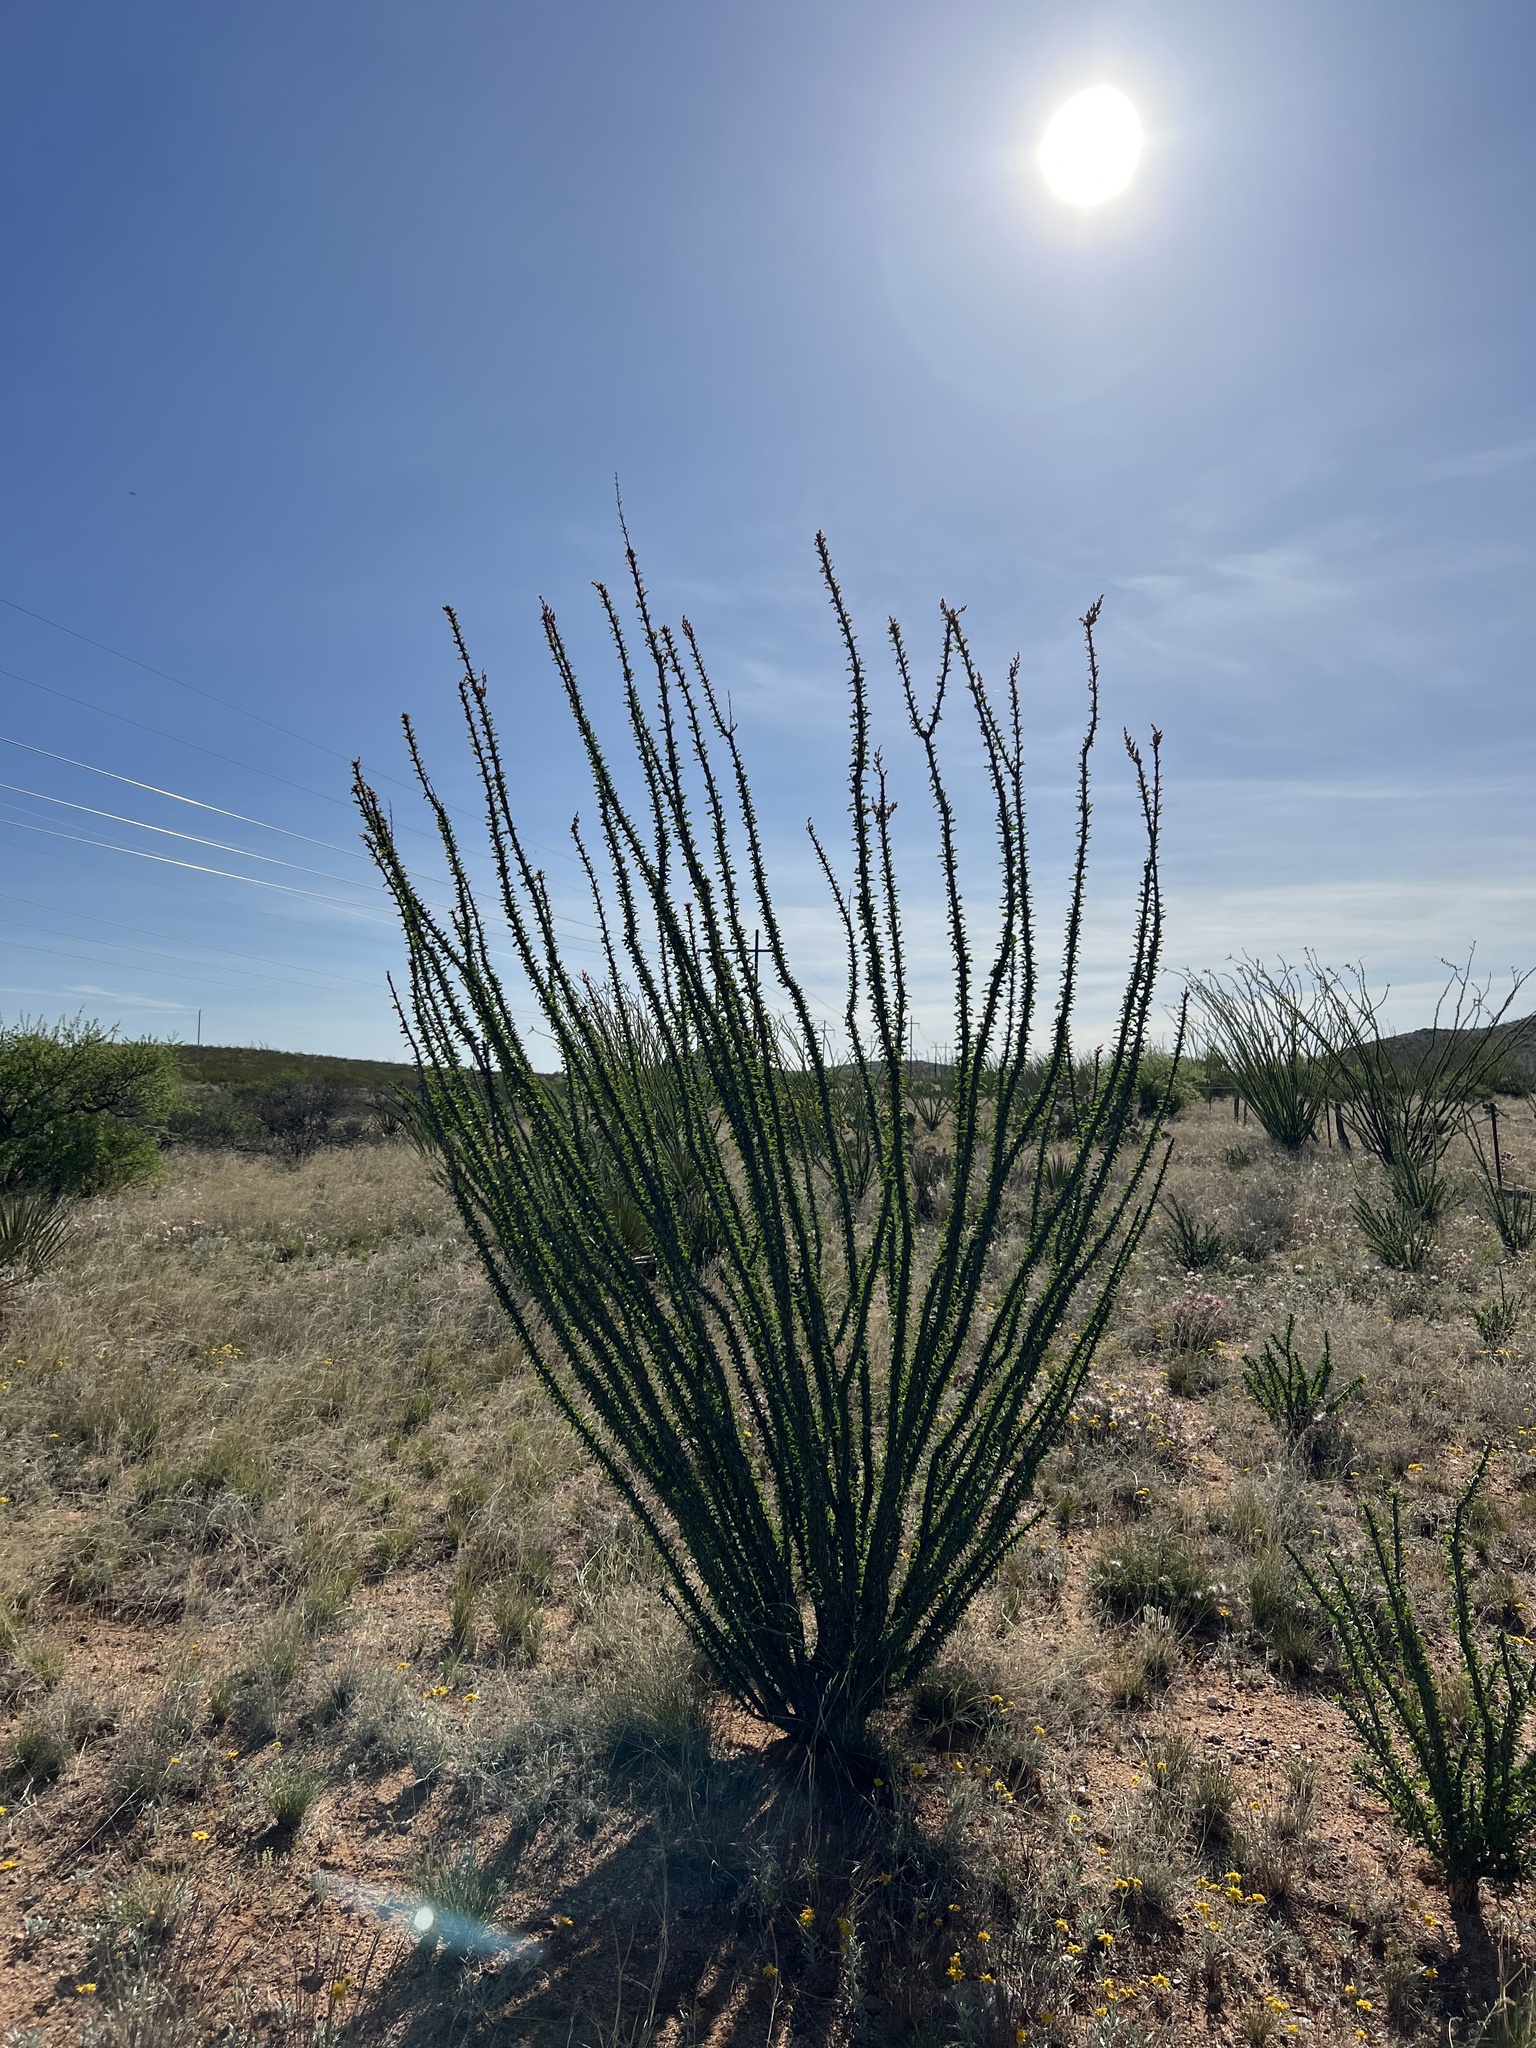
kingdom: Plantae
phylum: Tracheophyta
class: Magnoliopsida
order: Ericales
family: Fouquieriaceae
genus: Fouquieria
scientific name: Fouquieria splendens
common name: Vine-cactus
